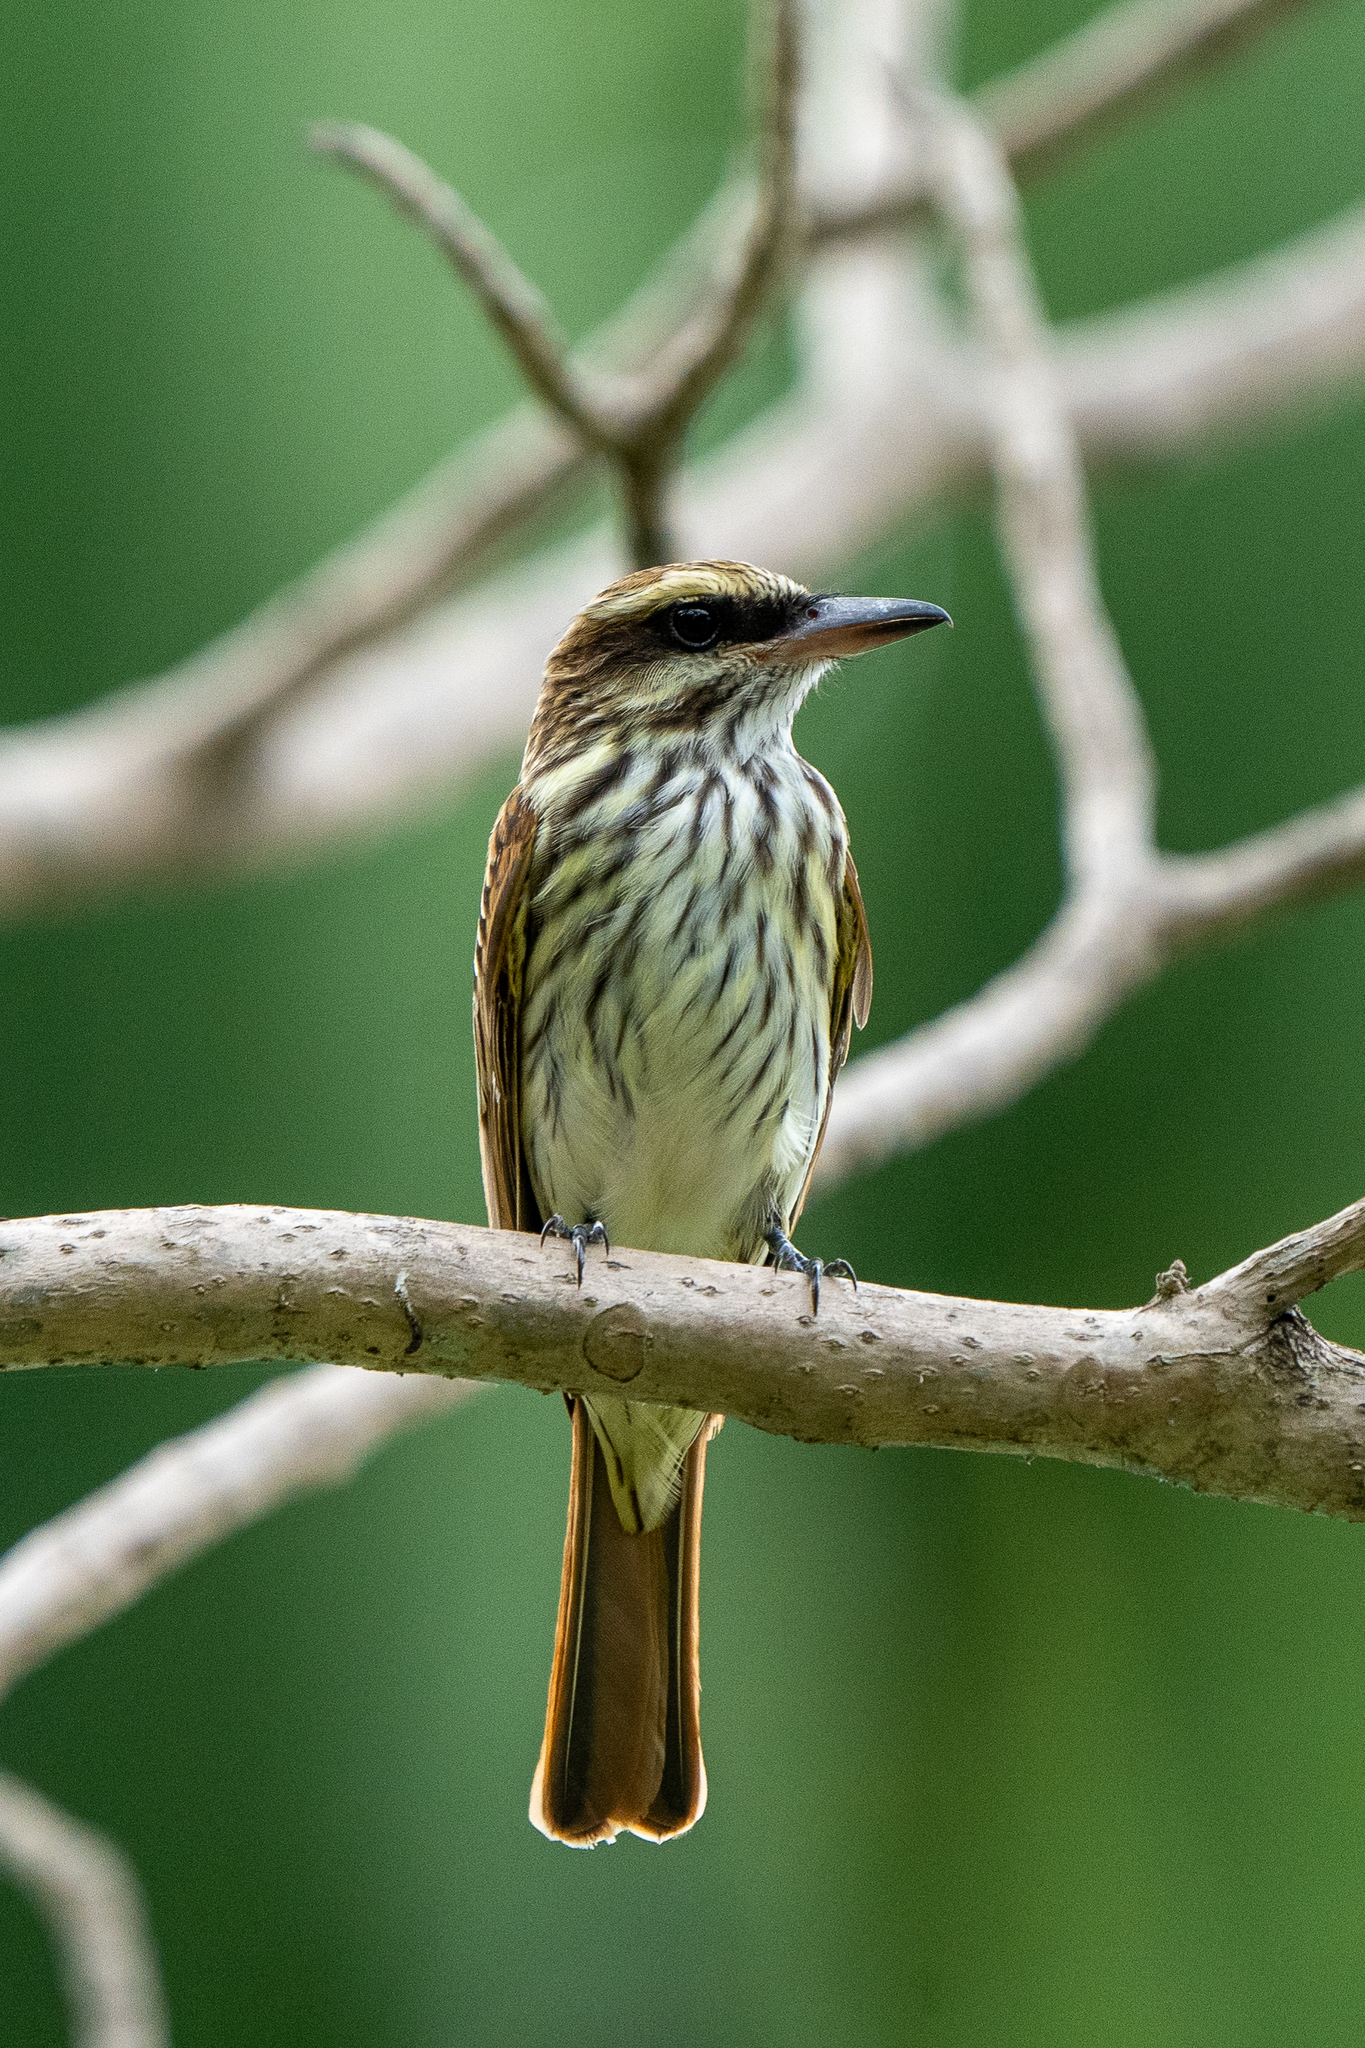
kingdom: Animalia
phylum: Chordata
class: Aves
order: Passeriformes
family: Tyrannidae
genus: Myiodynastes
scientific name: Myiodynastes maculatus
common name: Streaked flycatcher
